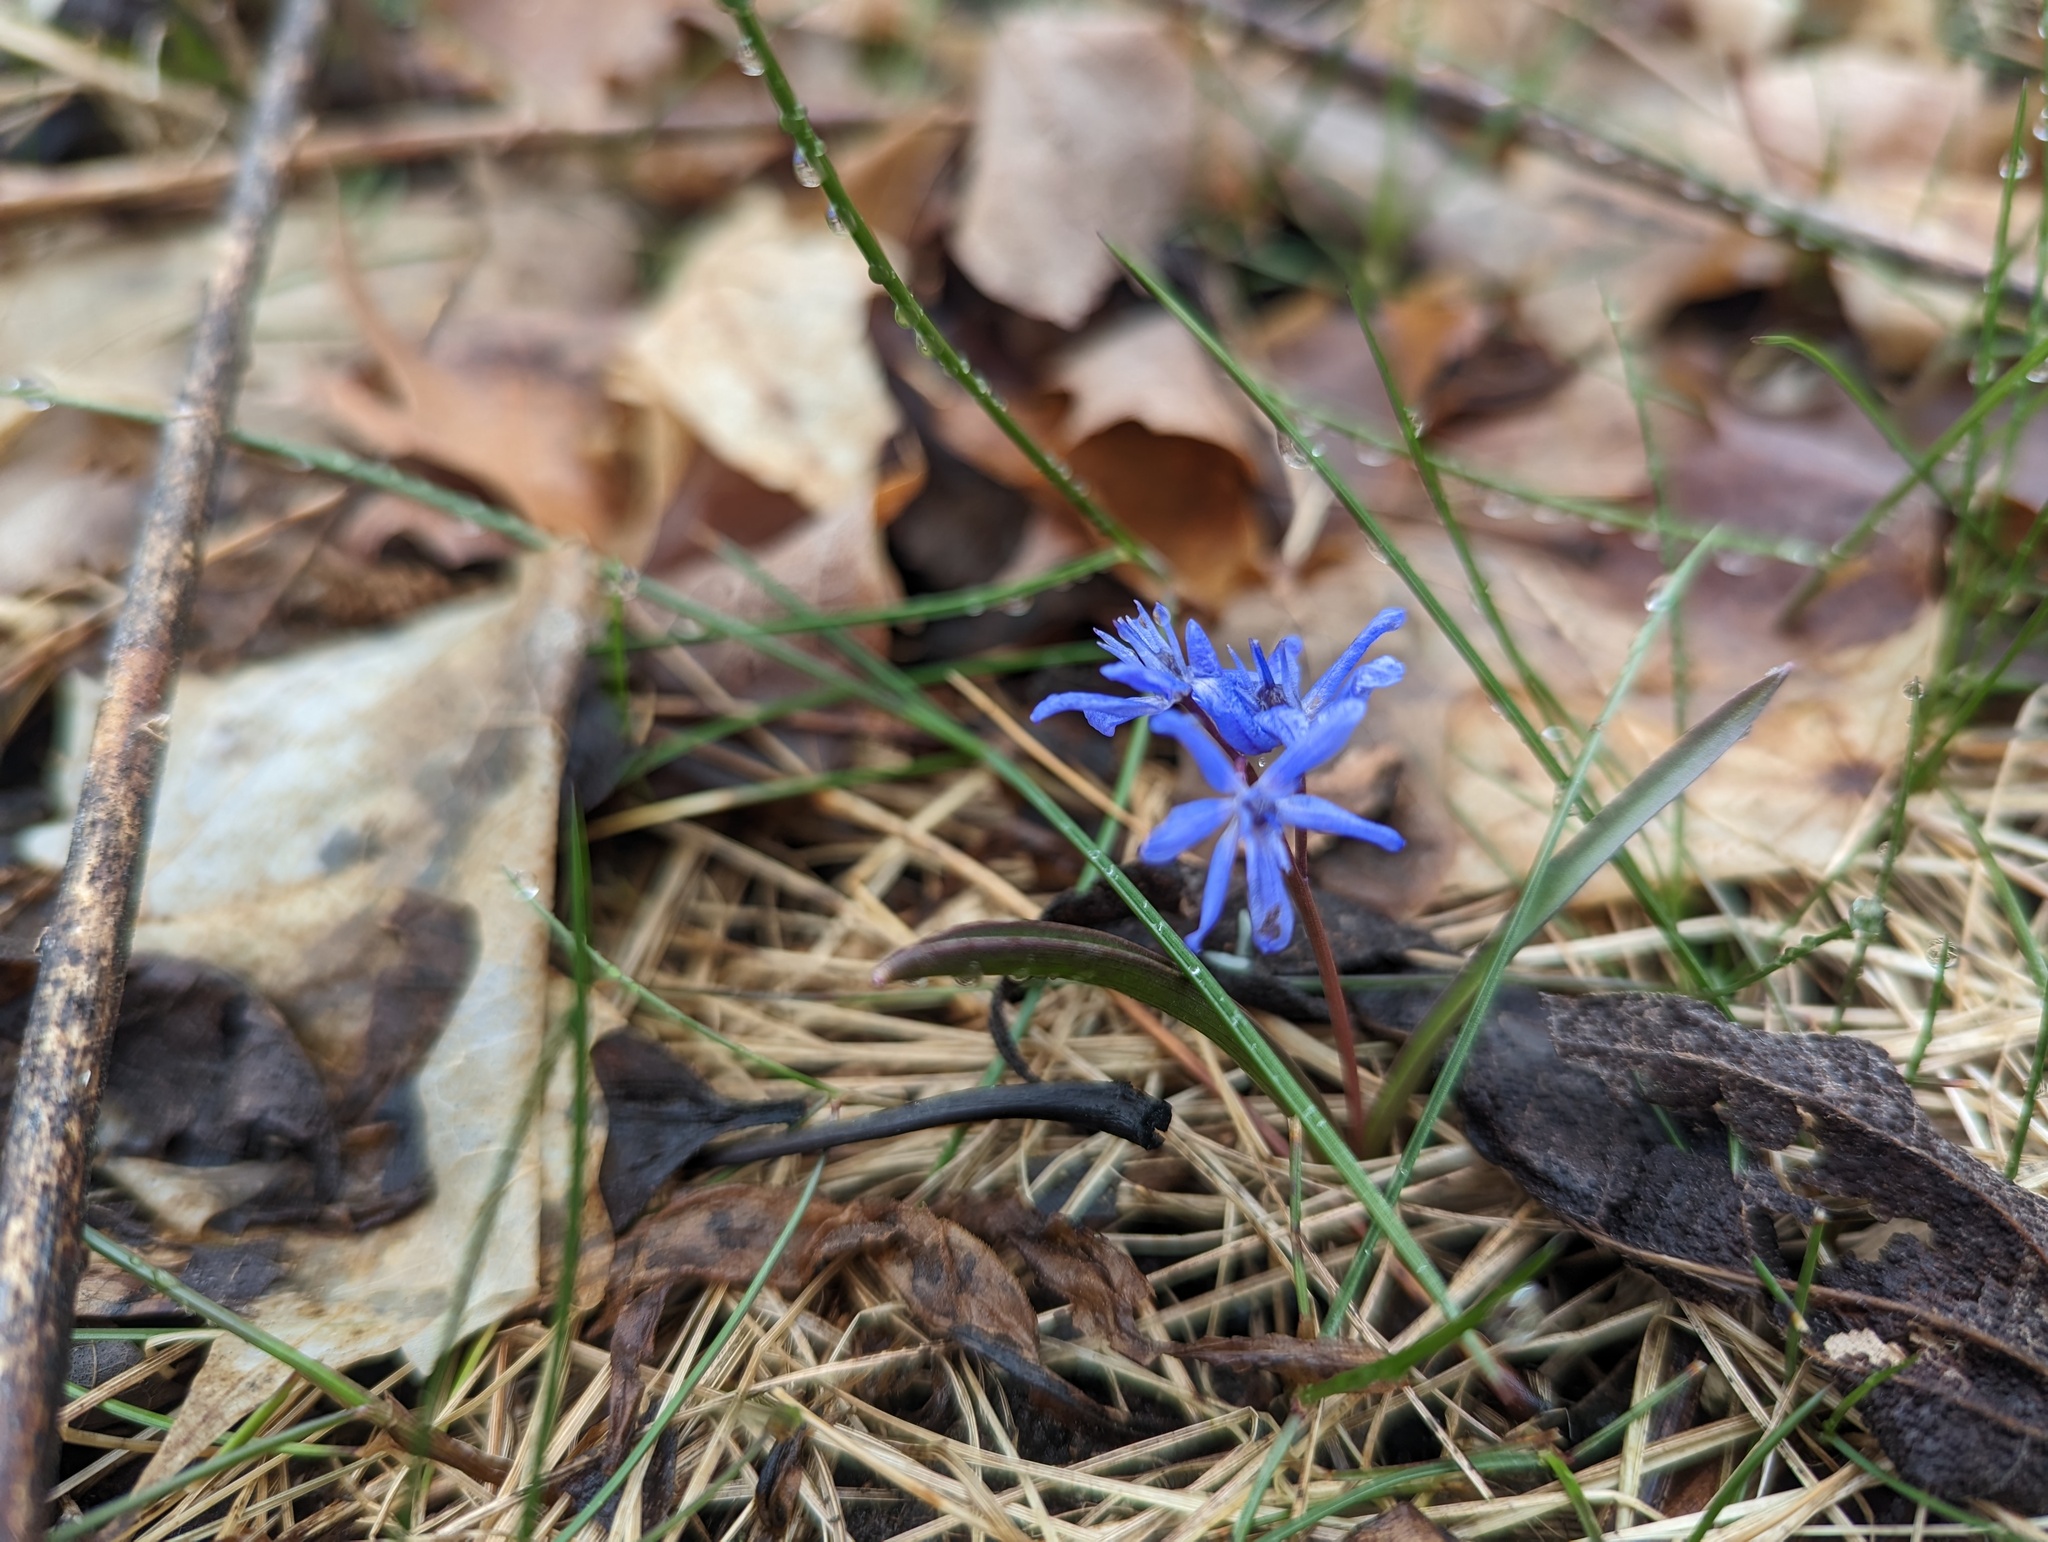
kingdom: Plantae
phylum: Tracheophyta
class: Liliopsida
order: Asparagales
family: Asparagaceae
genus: Scilla
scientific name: Scilla bifolia
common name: Alpine squill
